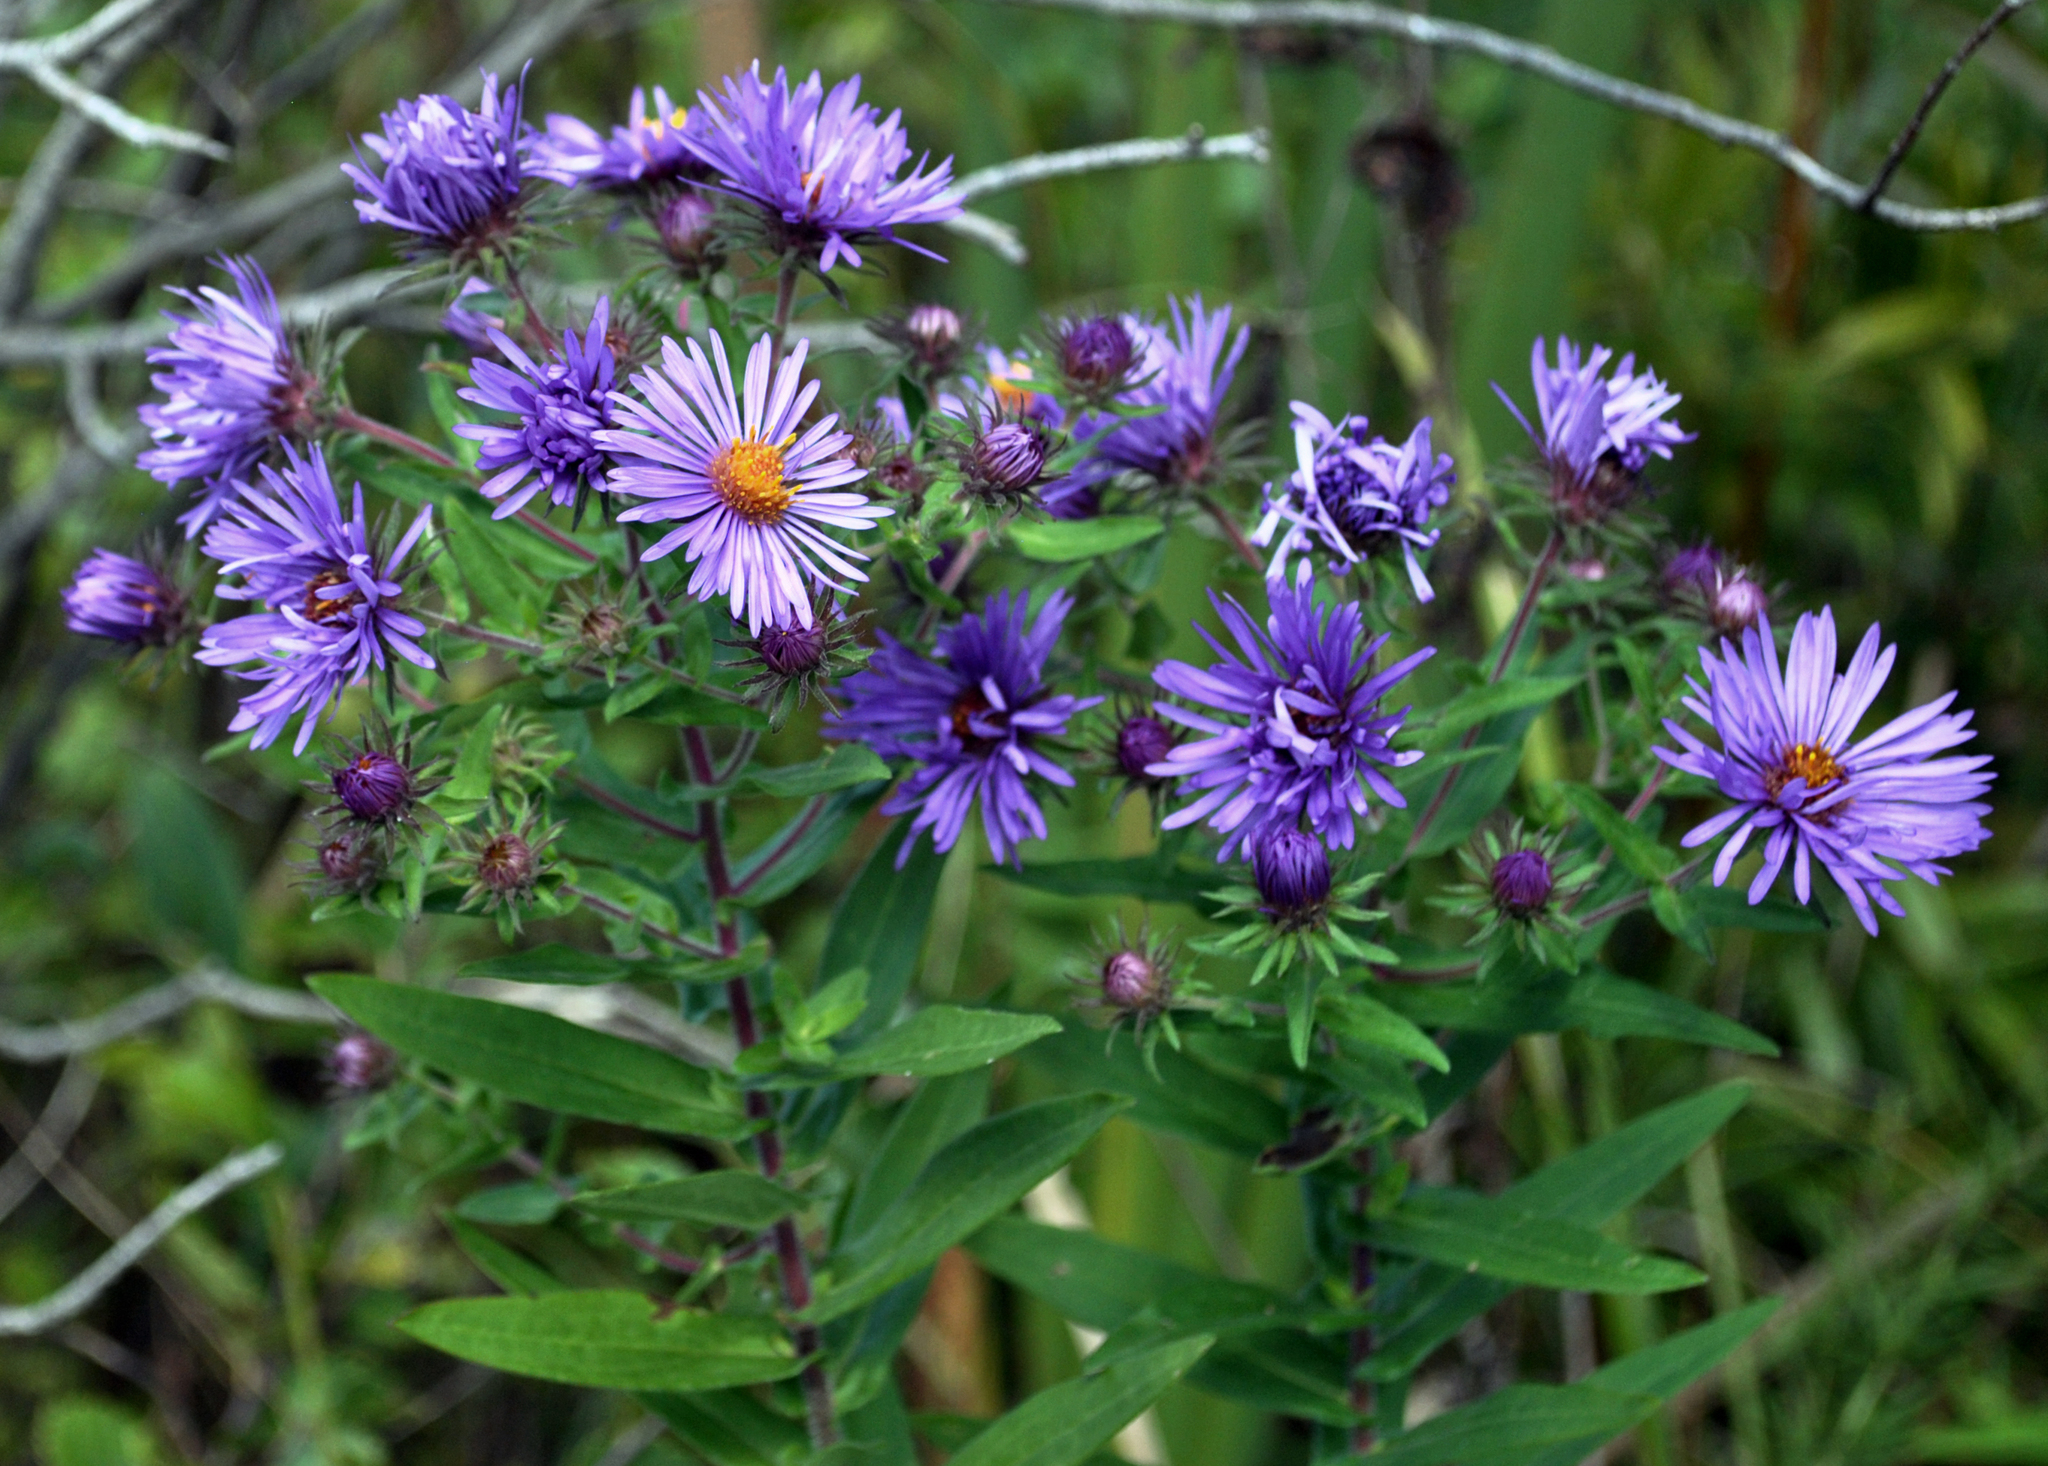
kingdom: Plantae
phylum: Tracheophyta
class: Magnoliopsida
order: Asterales
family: Asteraceae
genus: Symphyotrichum
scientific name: Symphyotrichum novae-angliae
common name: Michaelmas daisy
